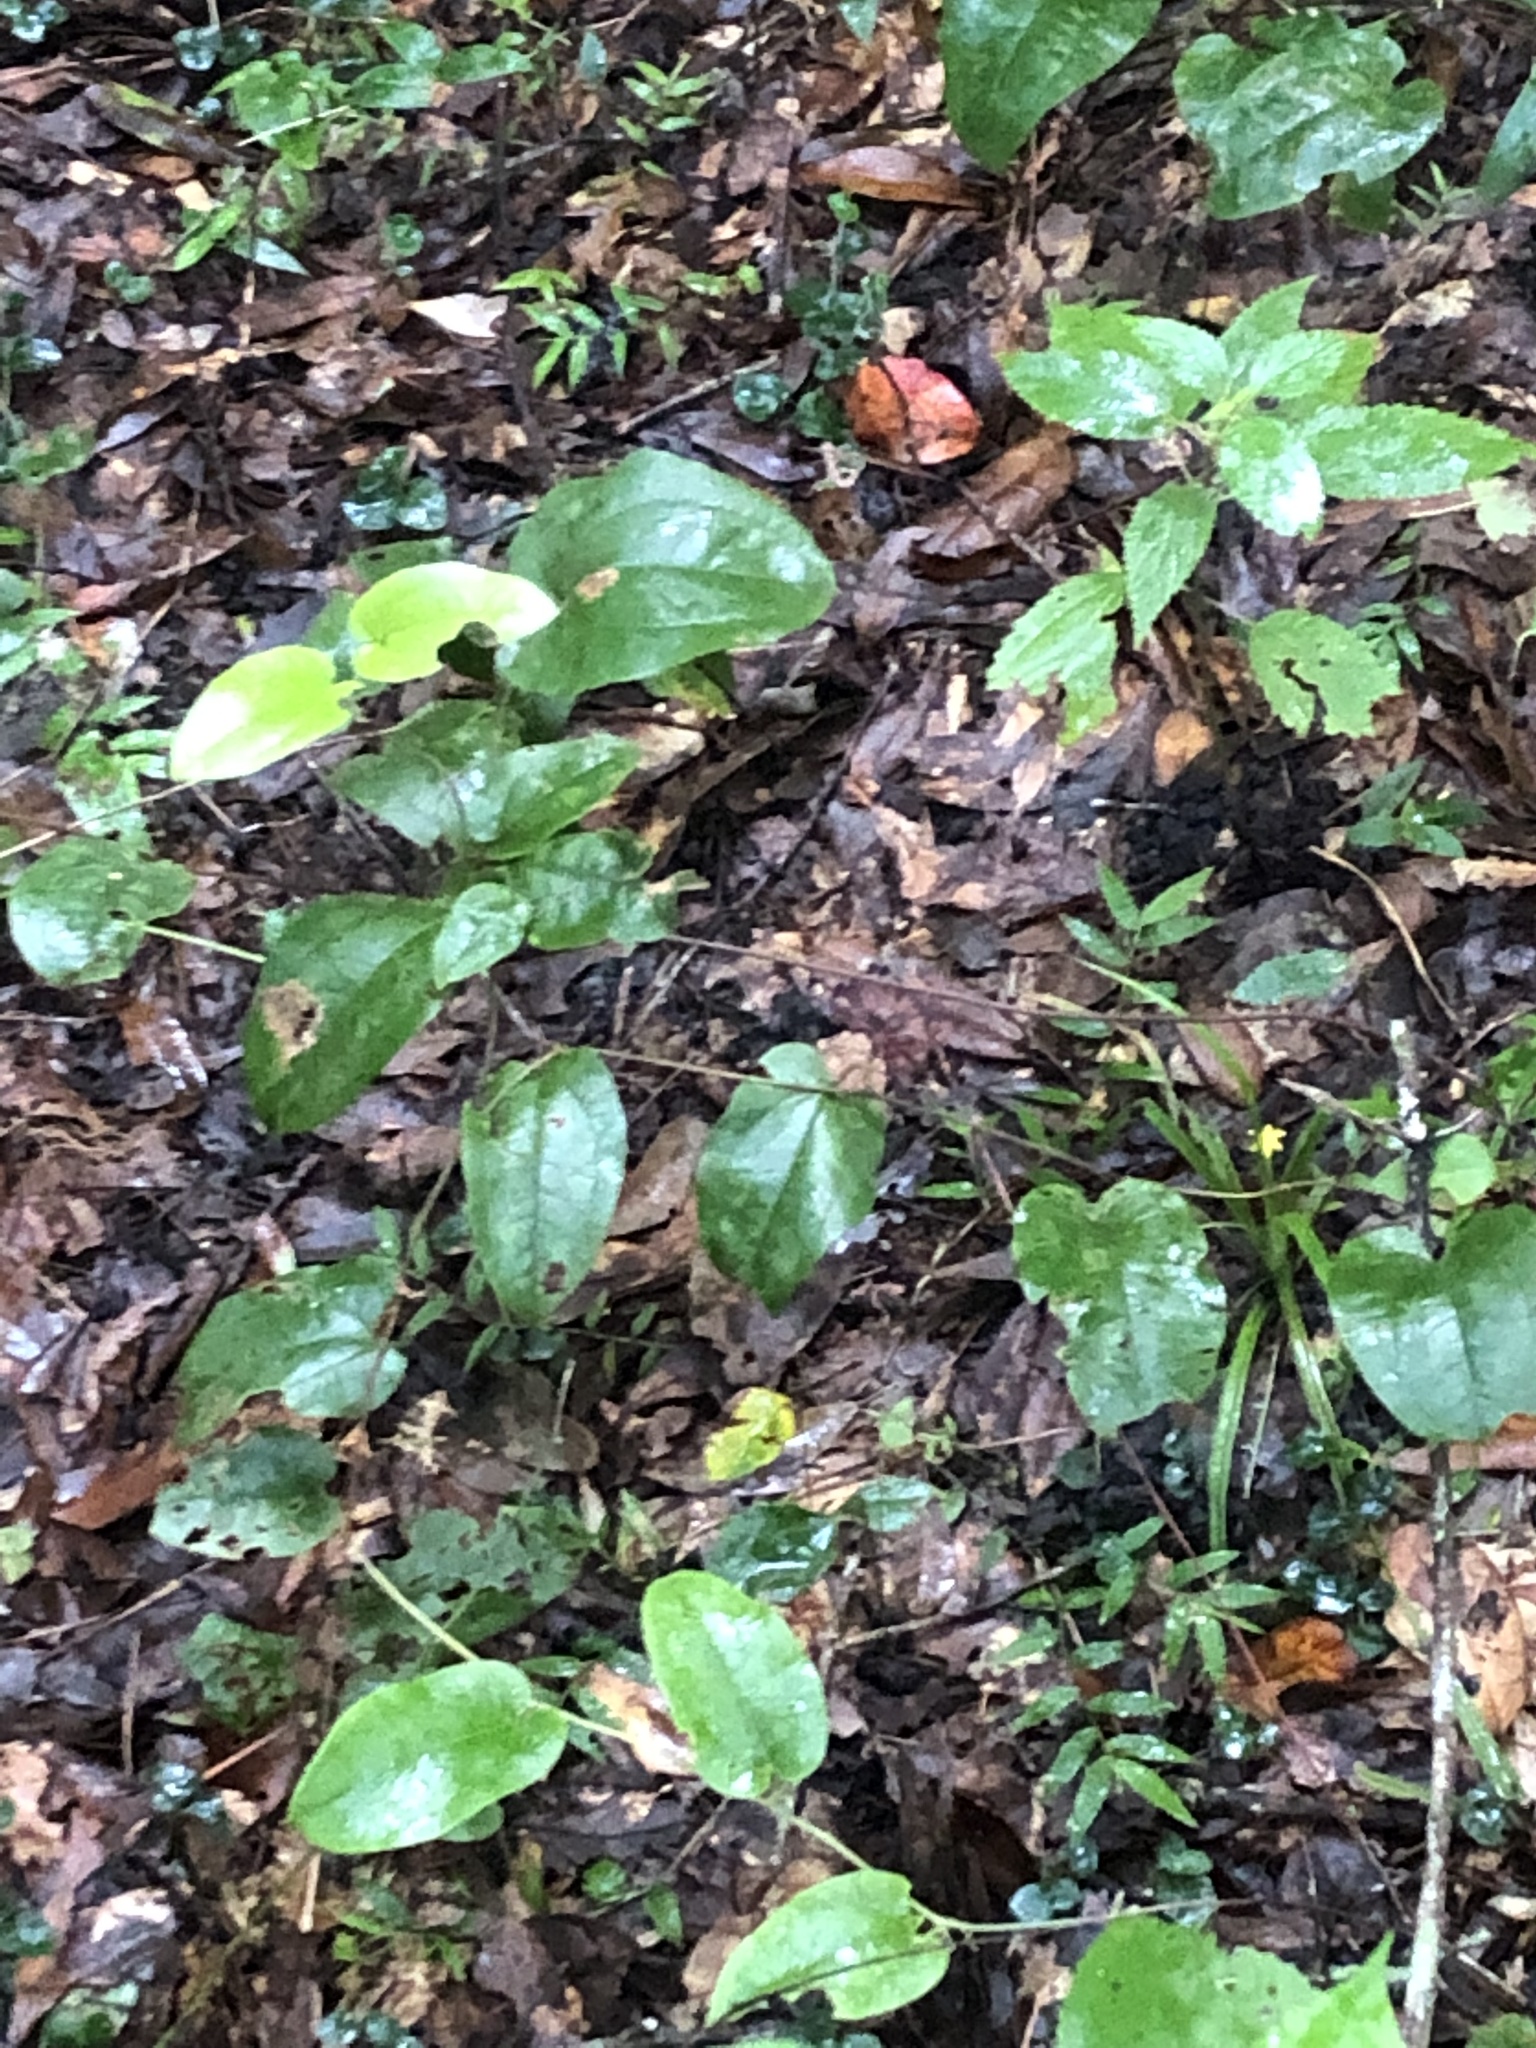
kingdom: Plantae
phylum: Tracheophyta
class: Liliopsida
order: Liliales
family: Smilacaceae
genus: Smilax
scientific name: Smilax pumila
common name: Sarsaparilla-vine
